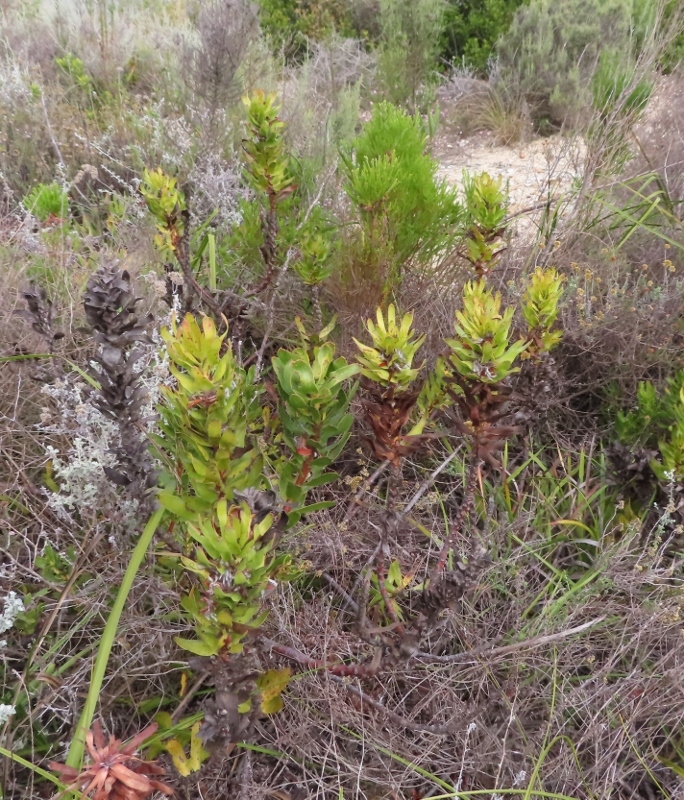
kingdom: Plantae
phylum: Tracheophyta
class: Magnoliopsida
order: Proteales
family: Proteaceae
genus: Mimetes
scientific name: Mimetes cucullatus
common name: Common pagoda
